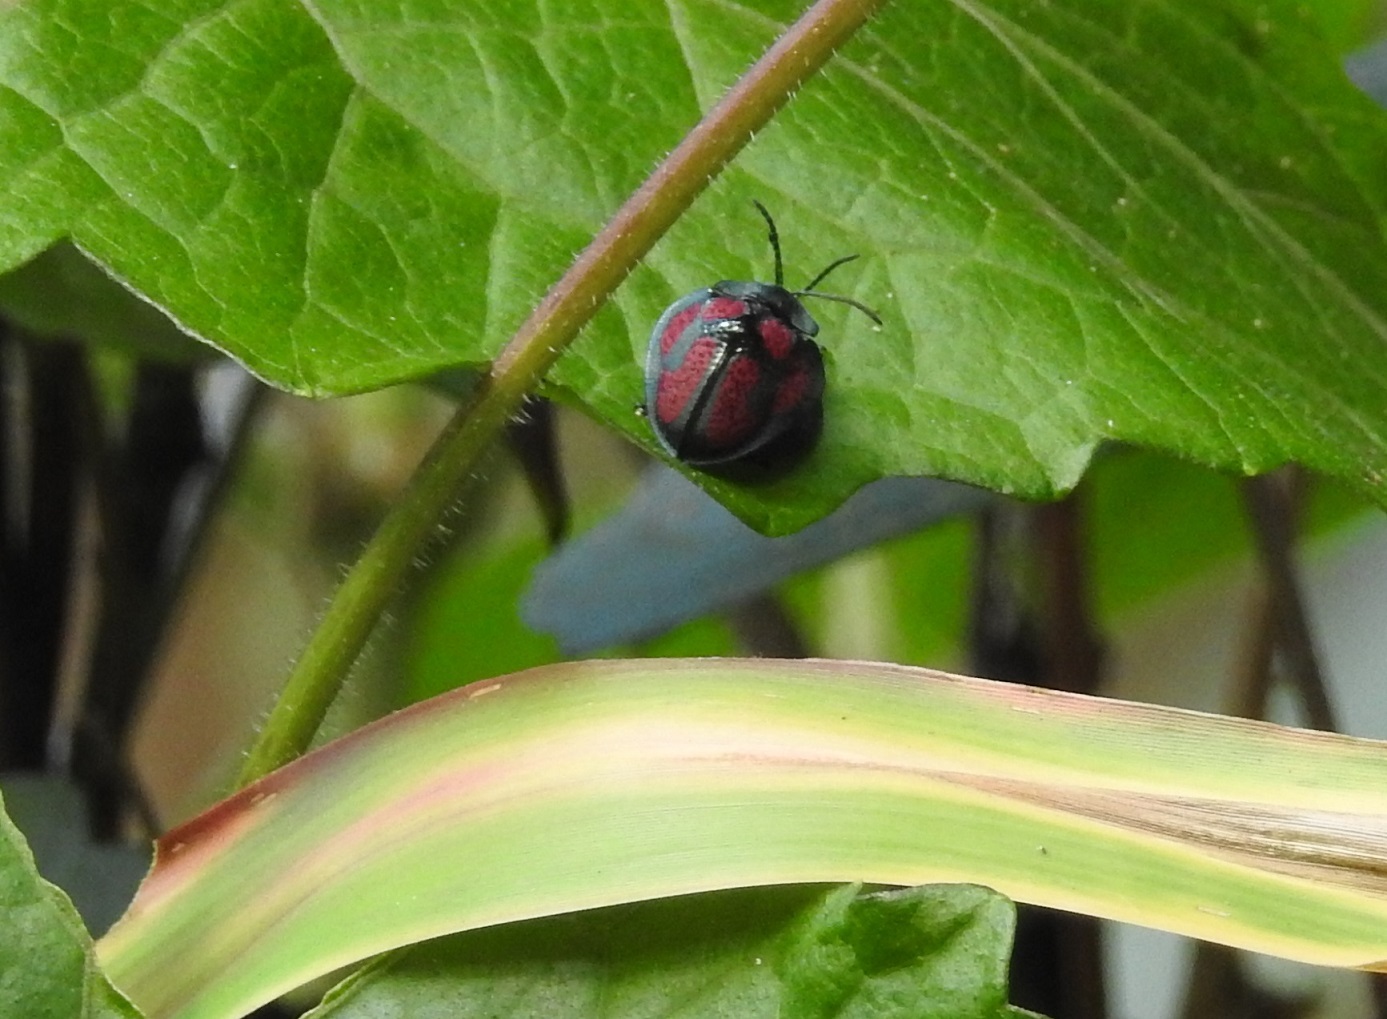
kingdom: Animalia
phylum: Arthropoda
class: Insecta
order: Coleoptera
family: Chrysomelidae
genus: Stolas
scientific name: Stolas punicea
